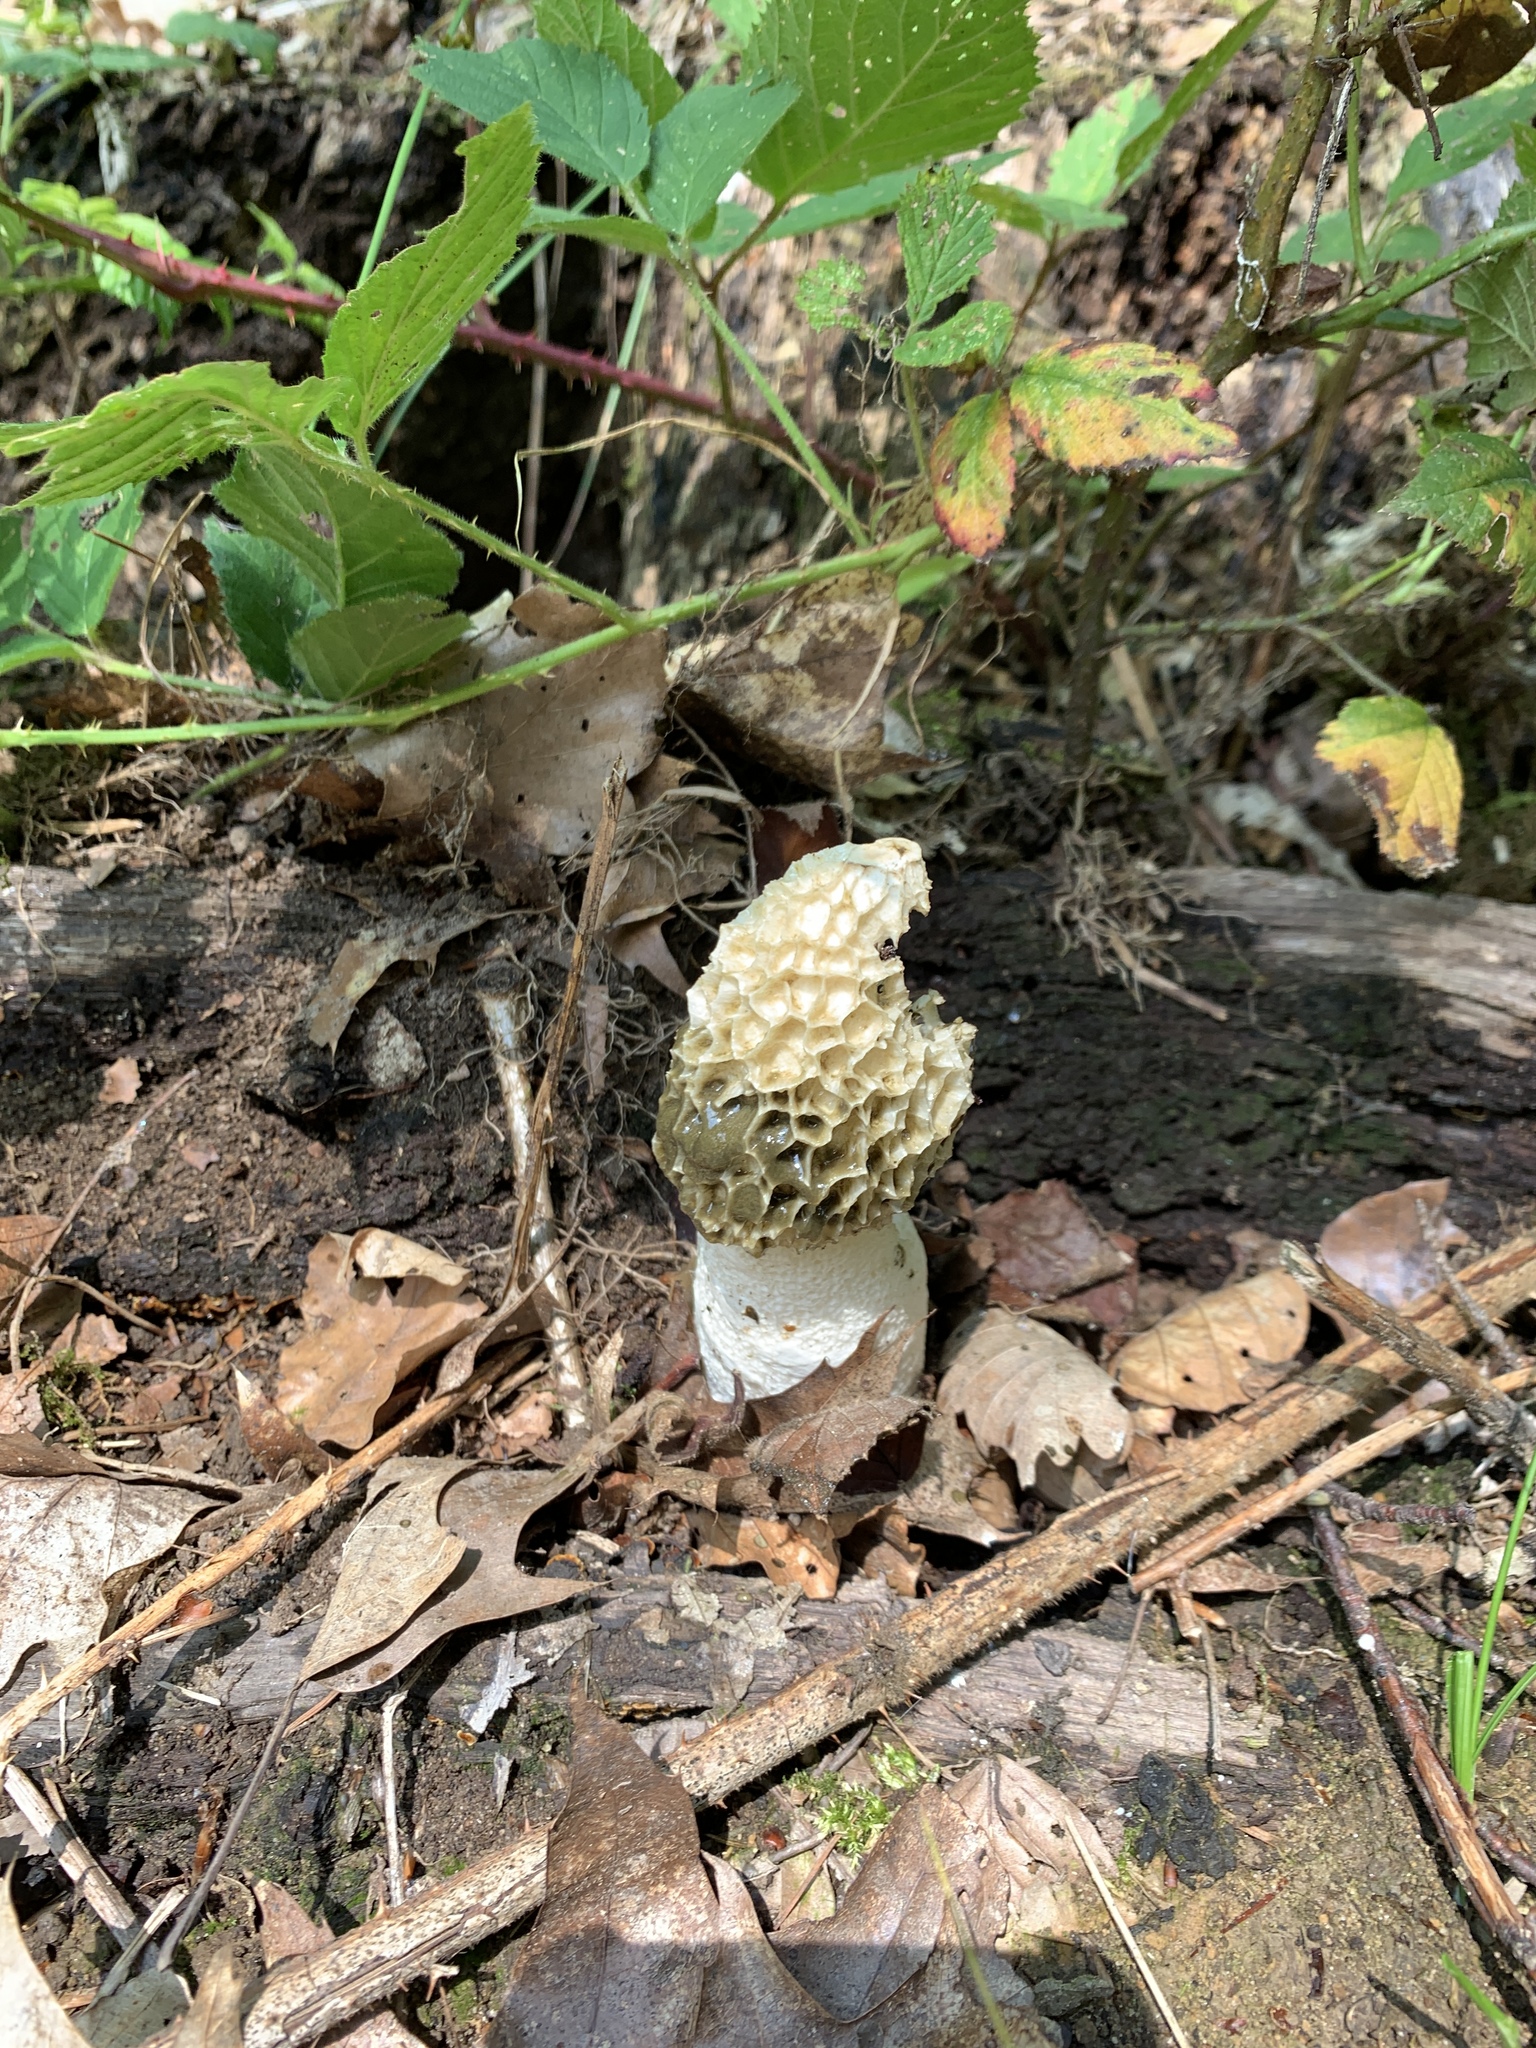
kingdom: Fungi
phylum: Basidiomycota
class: Agaricomycetes
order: Phallales
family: Phallaceae
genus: Phallus
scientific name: Phallus impudicus
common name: Common stinkhorn
